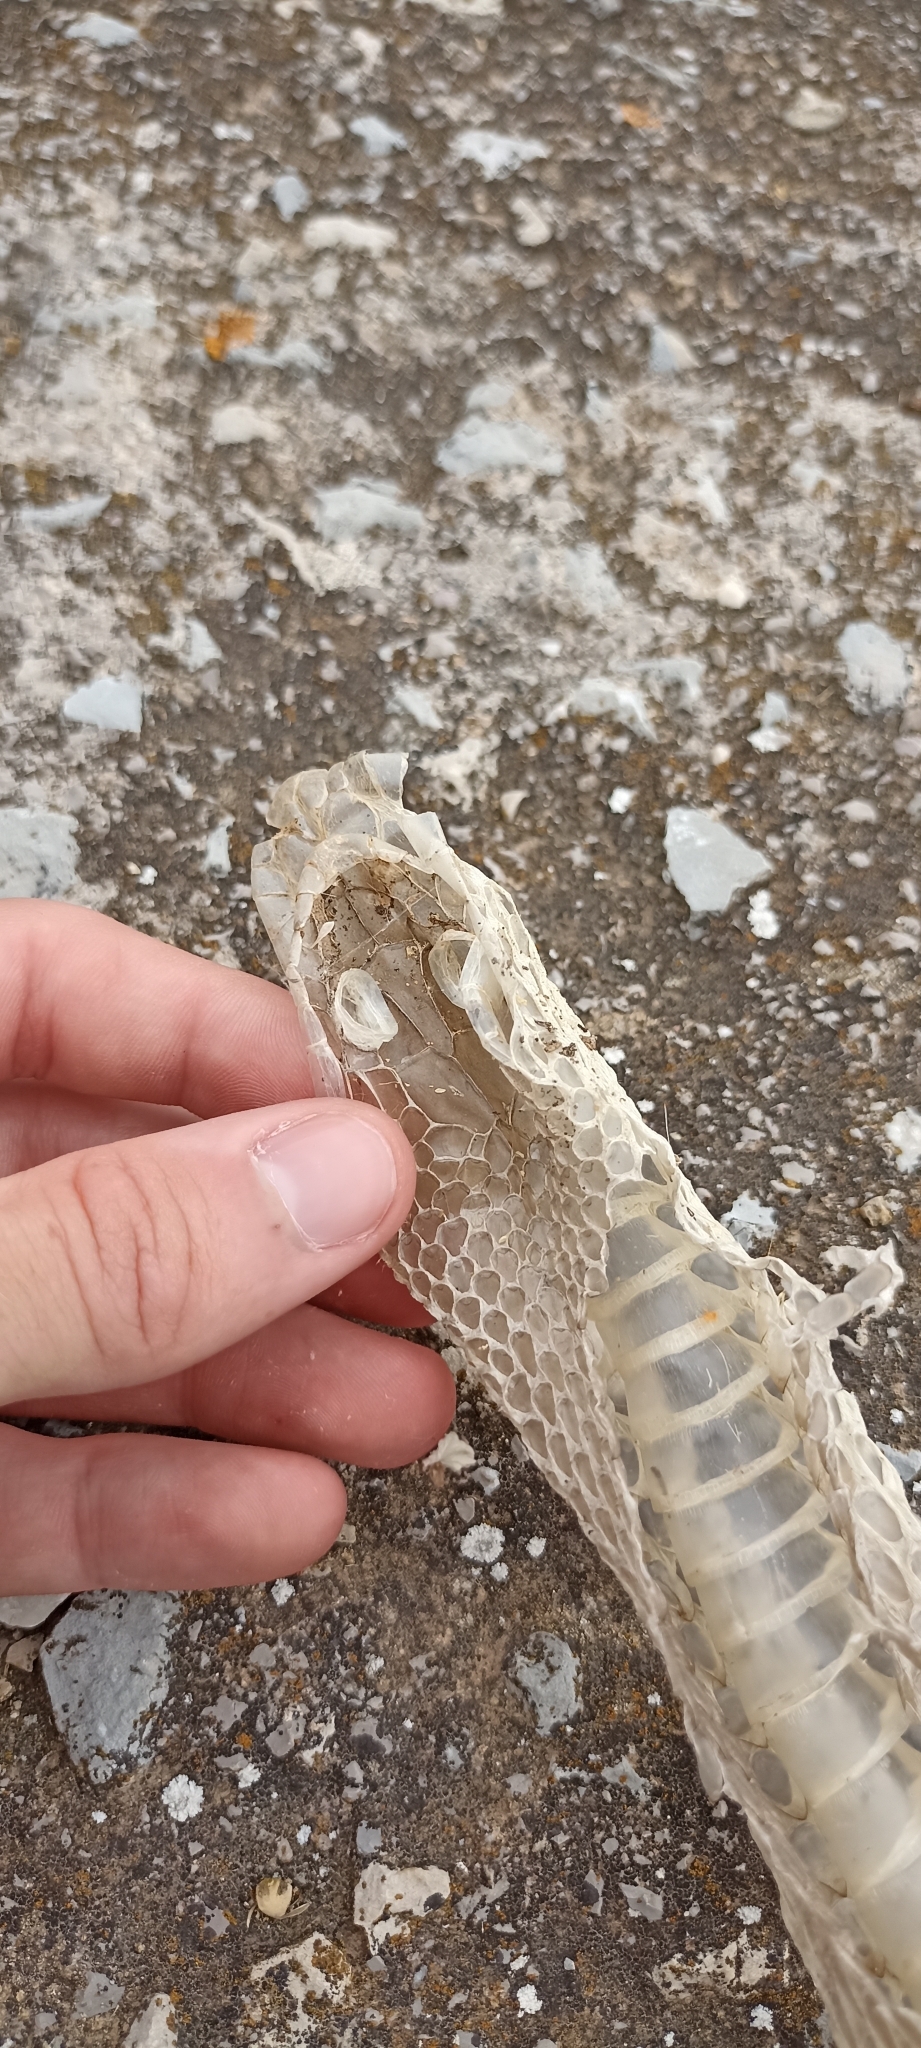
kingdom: Animalia
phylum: Chordata
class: Squamata
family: Psammophiidae
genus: Malpolon
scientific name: Malpolon monspessulanus
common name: Montpellier snake
